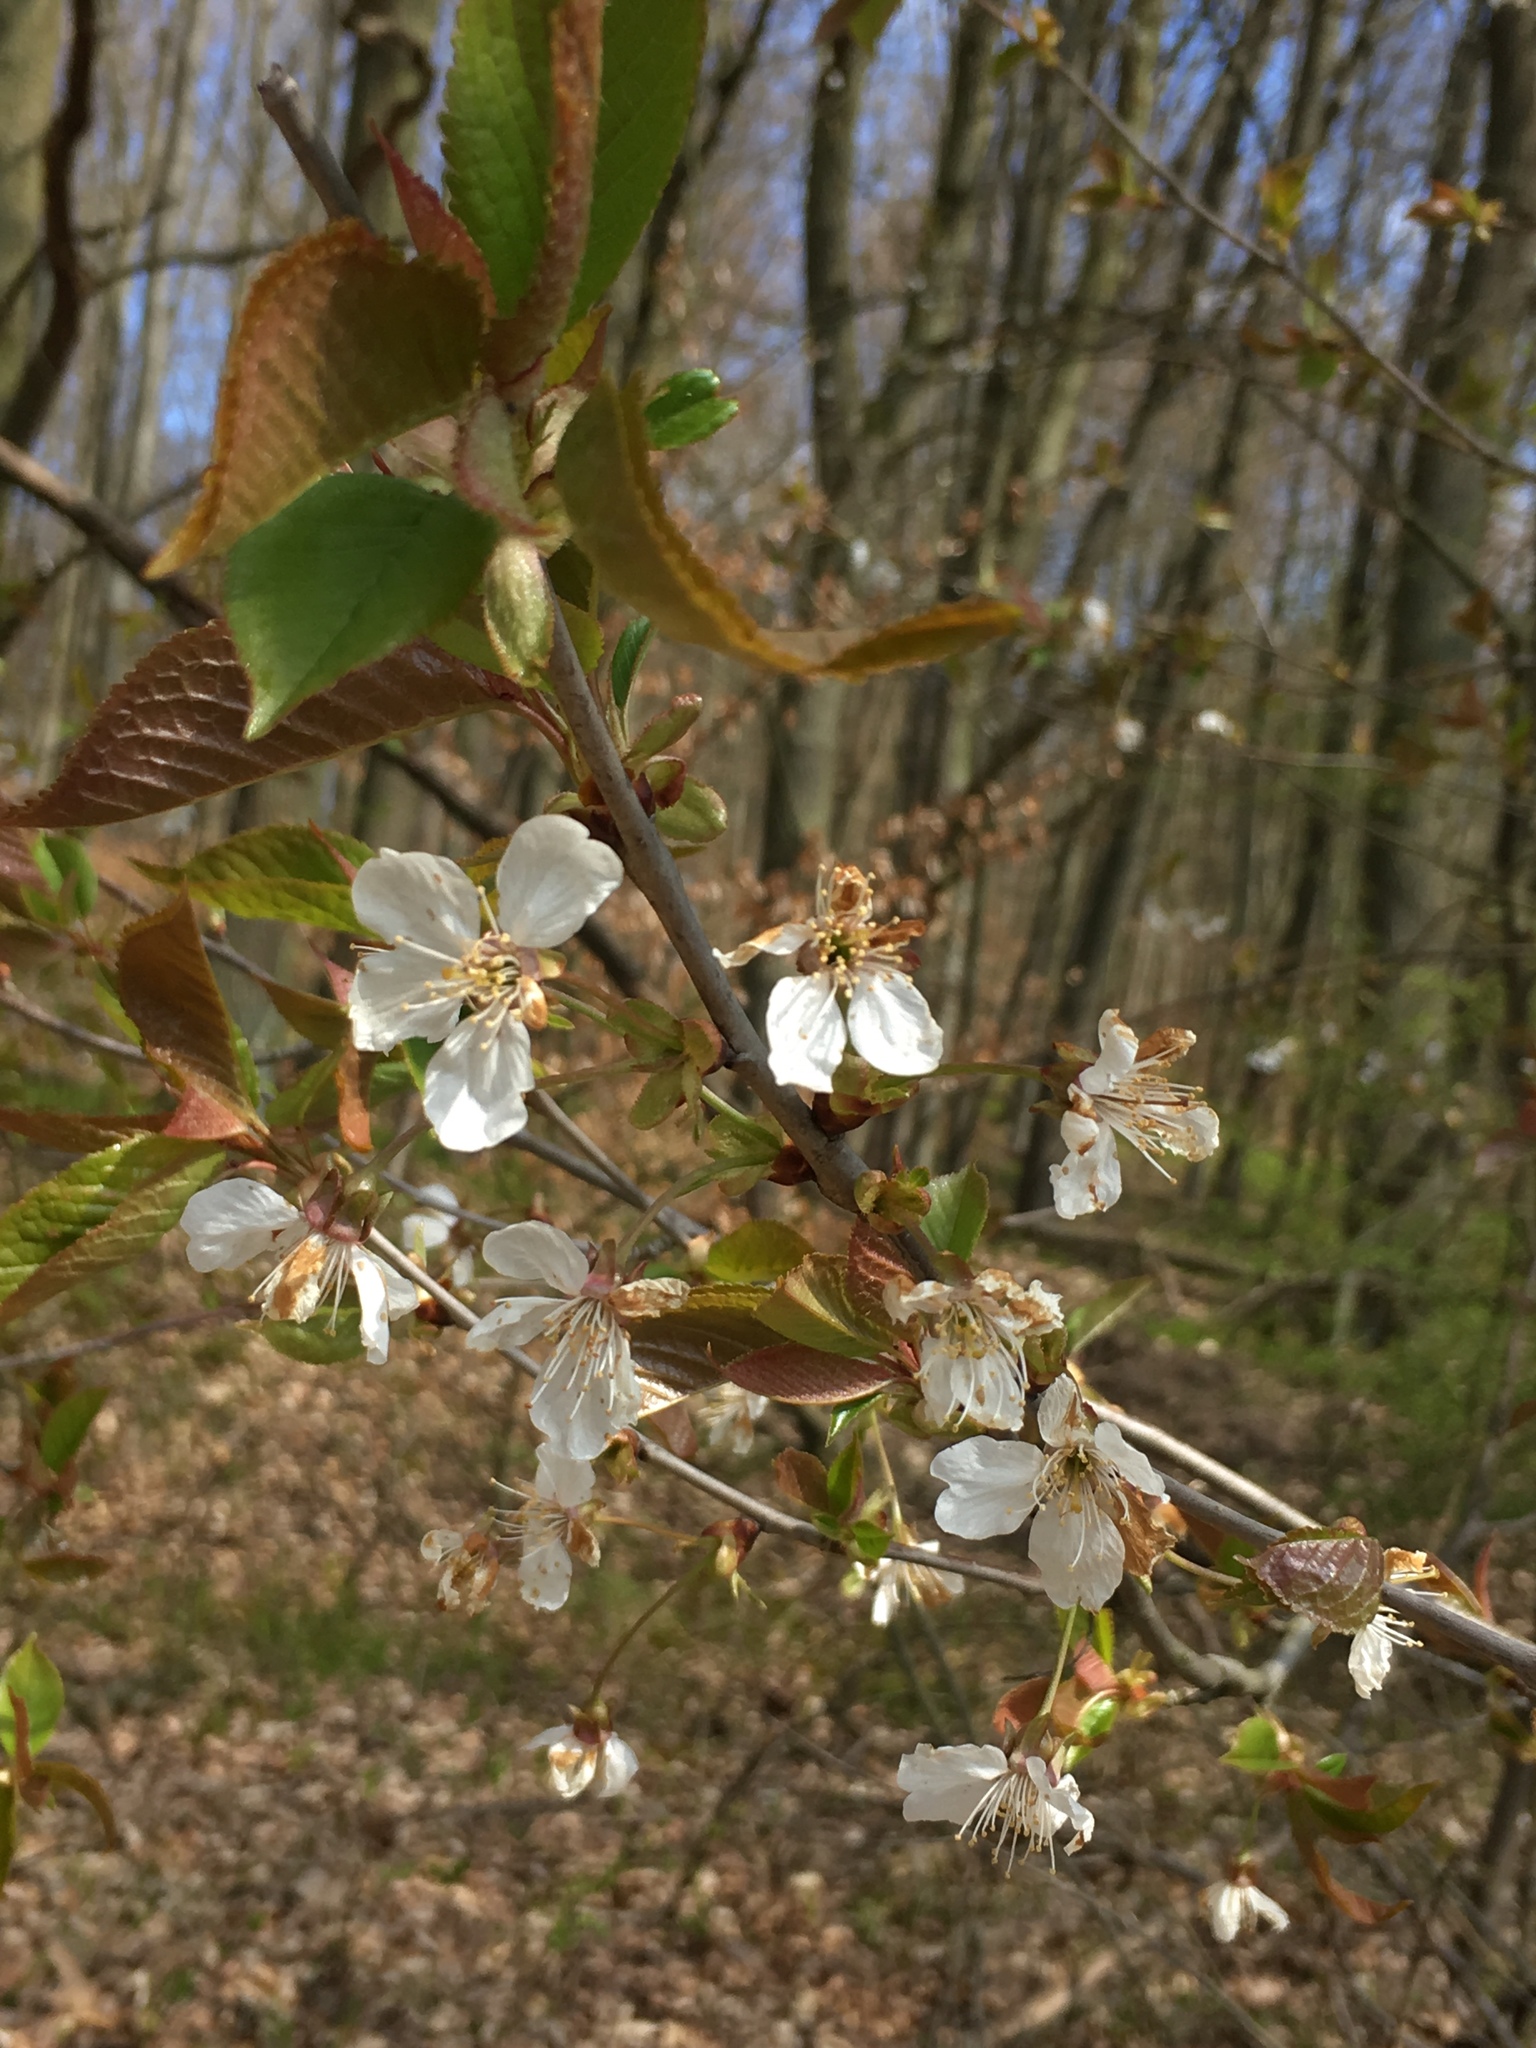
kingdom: Plantae
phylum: Tracheophyta
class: Magnoliopsida
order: Rosales
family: Rosaceae
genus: Prunus
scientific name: Prunus avium
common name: Sweet cherry
